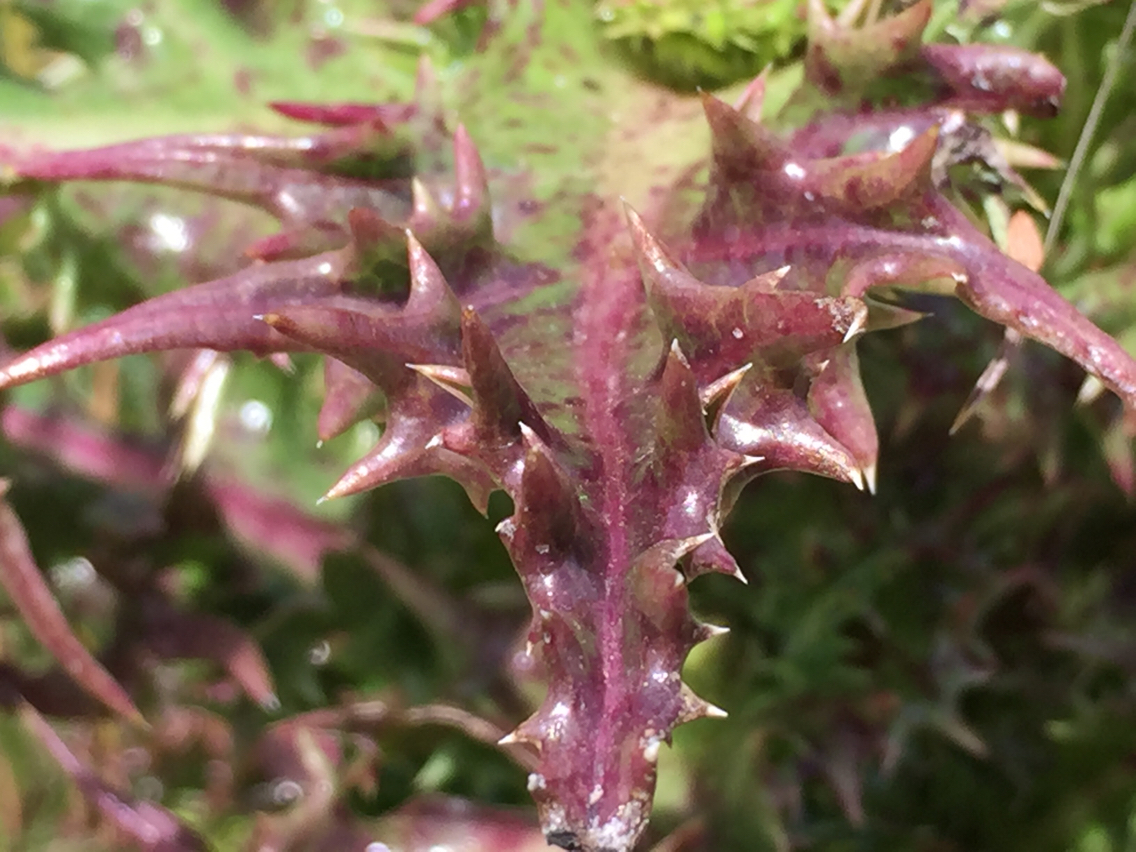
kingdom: Plantae
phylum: Tracheophyta
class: Magnoliopsida
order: Asterales
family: Asteraceae
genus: Sonchus
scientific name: Sonchus asper
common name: Prickly sow-thistle
